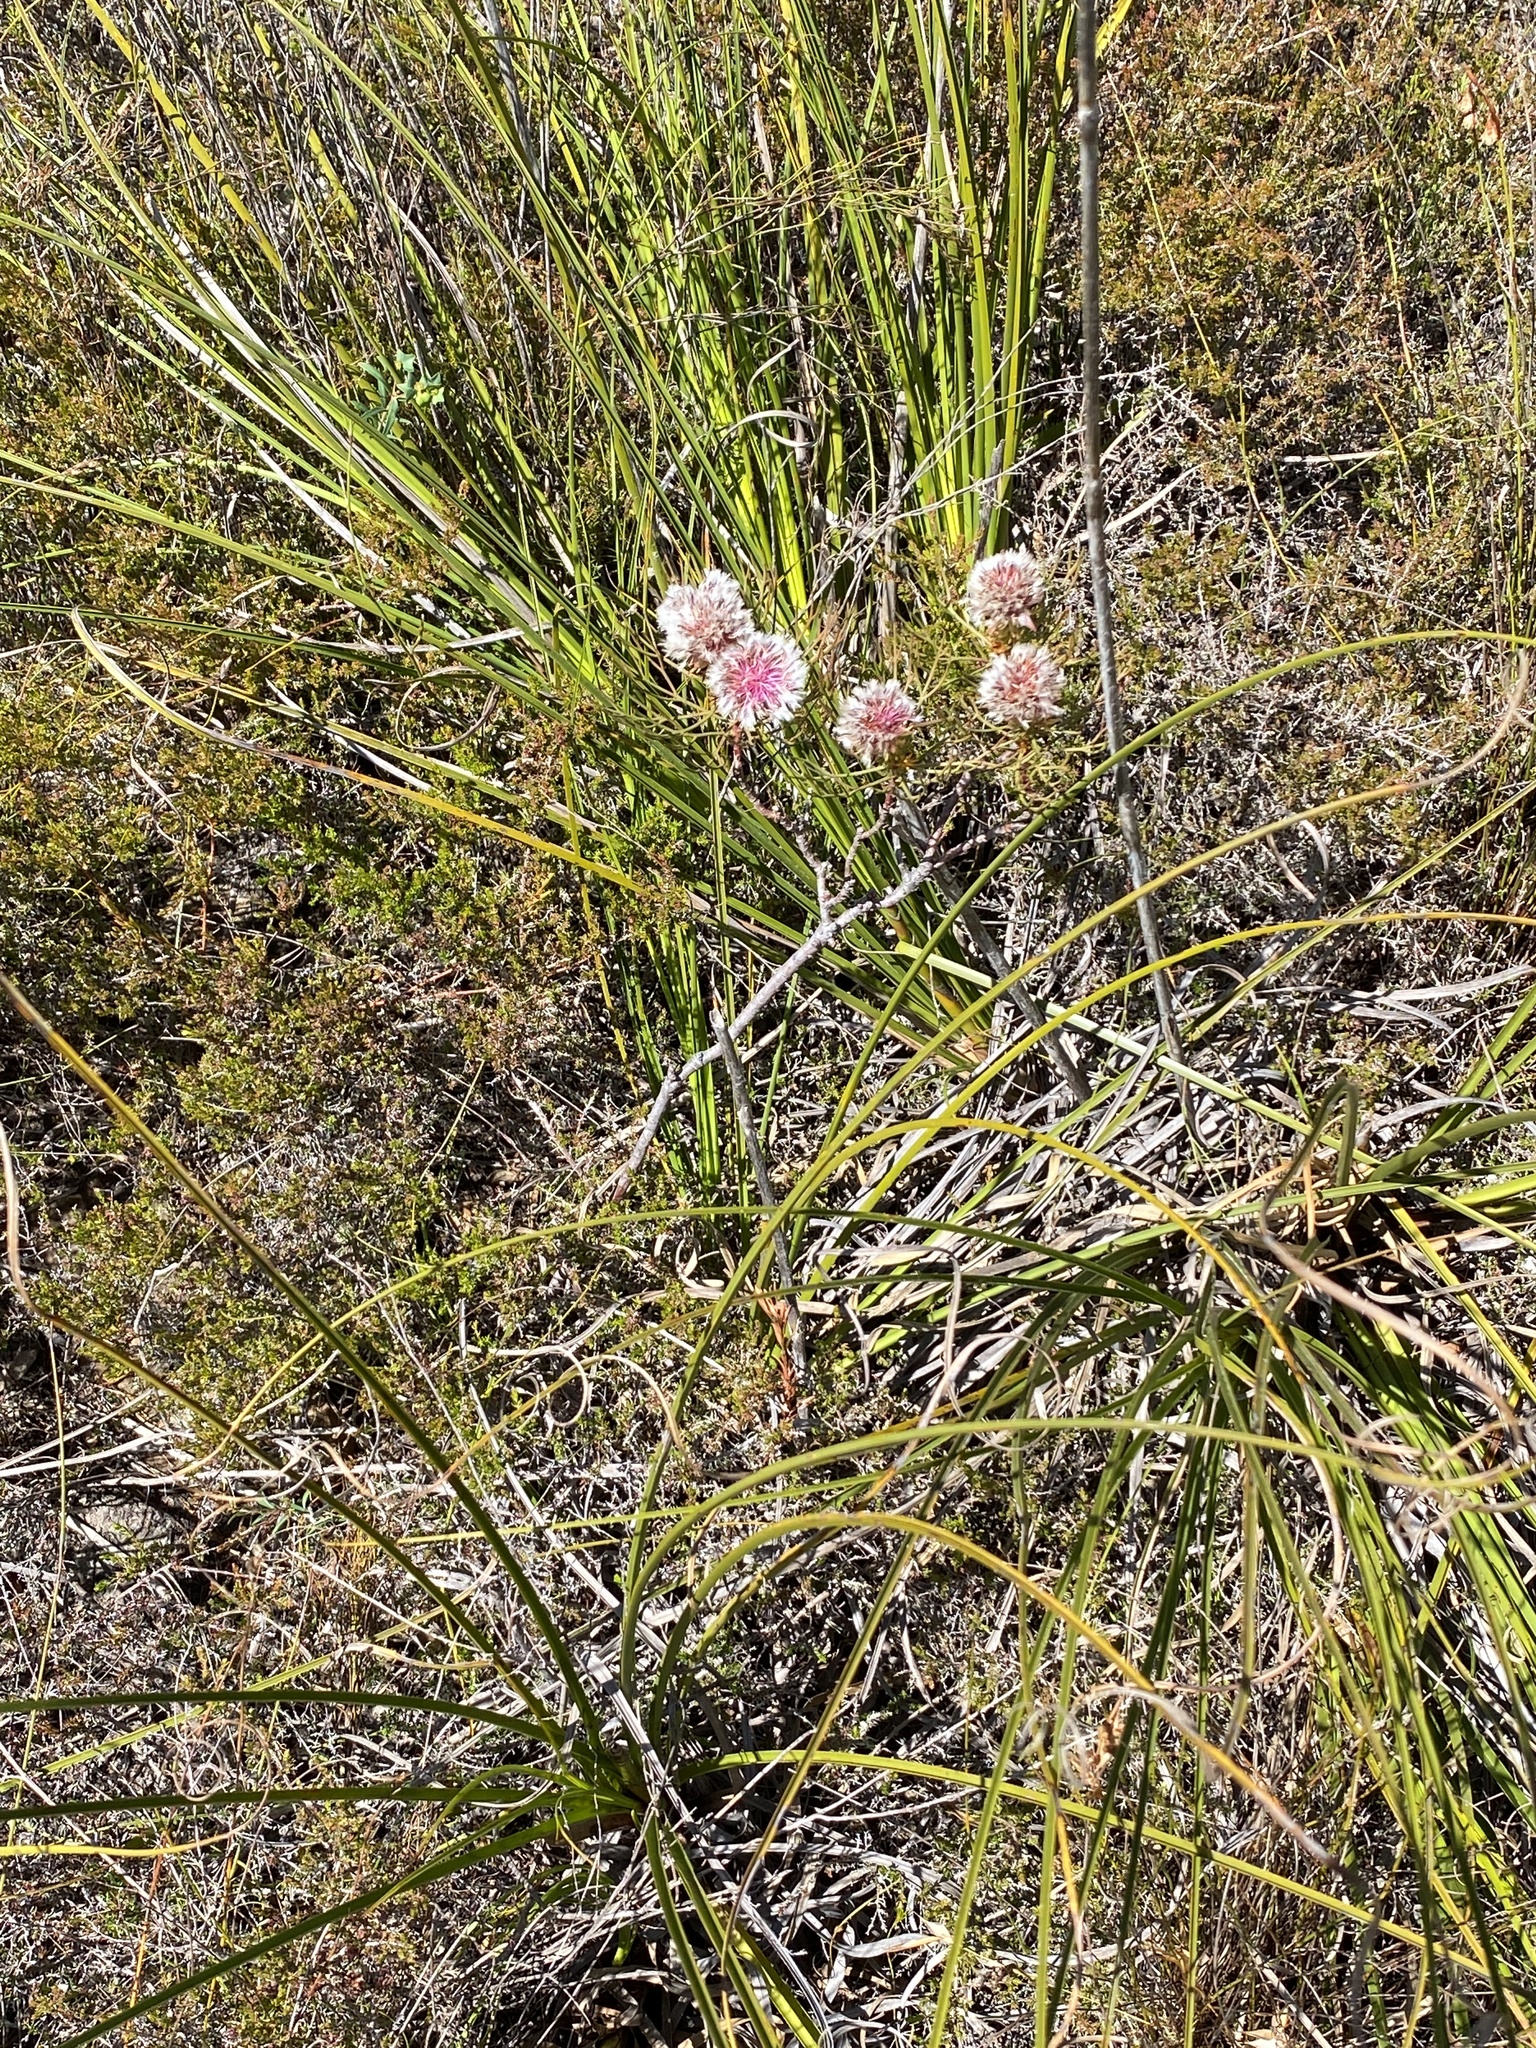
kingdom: Plantae
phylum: Tracheophyta
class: Magnoliopsida
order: Proteales
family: Proteaceae
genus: Serruria
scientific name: Serruria phylicoides
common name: Bearded spiderhead
